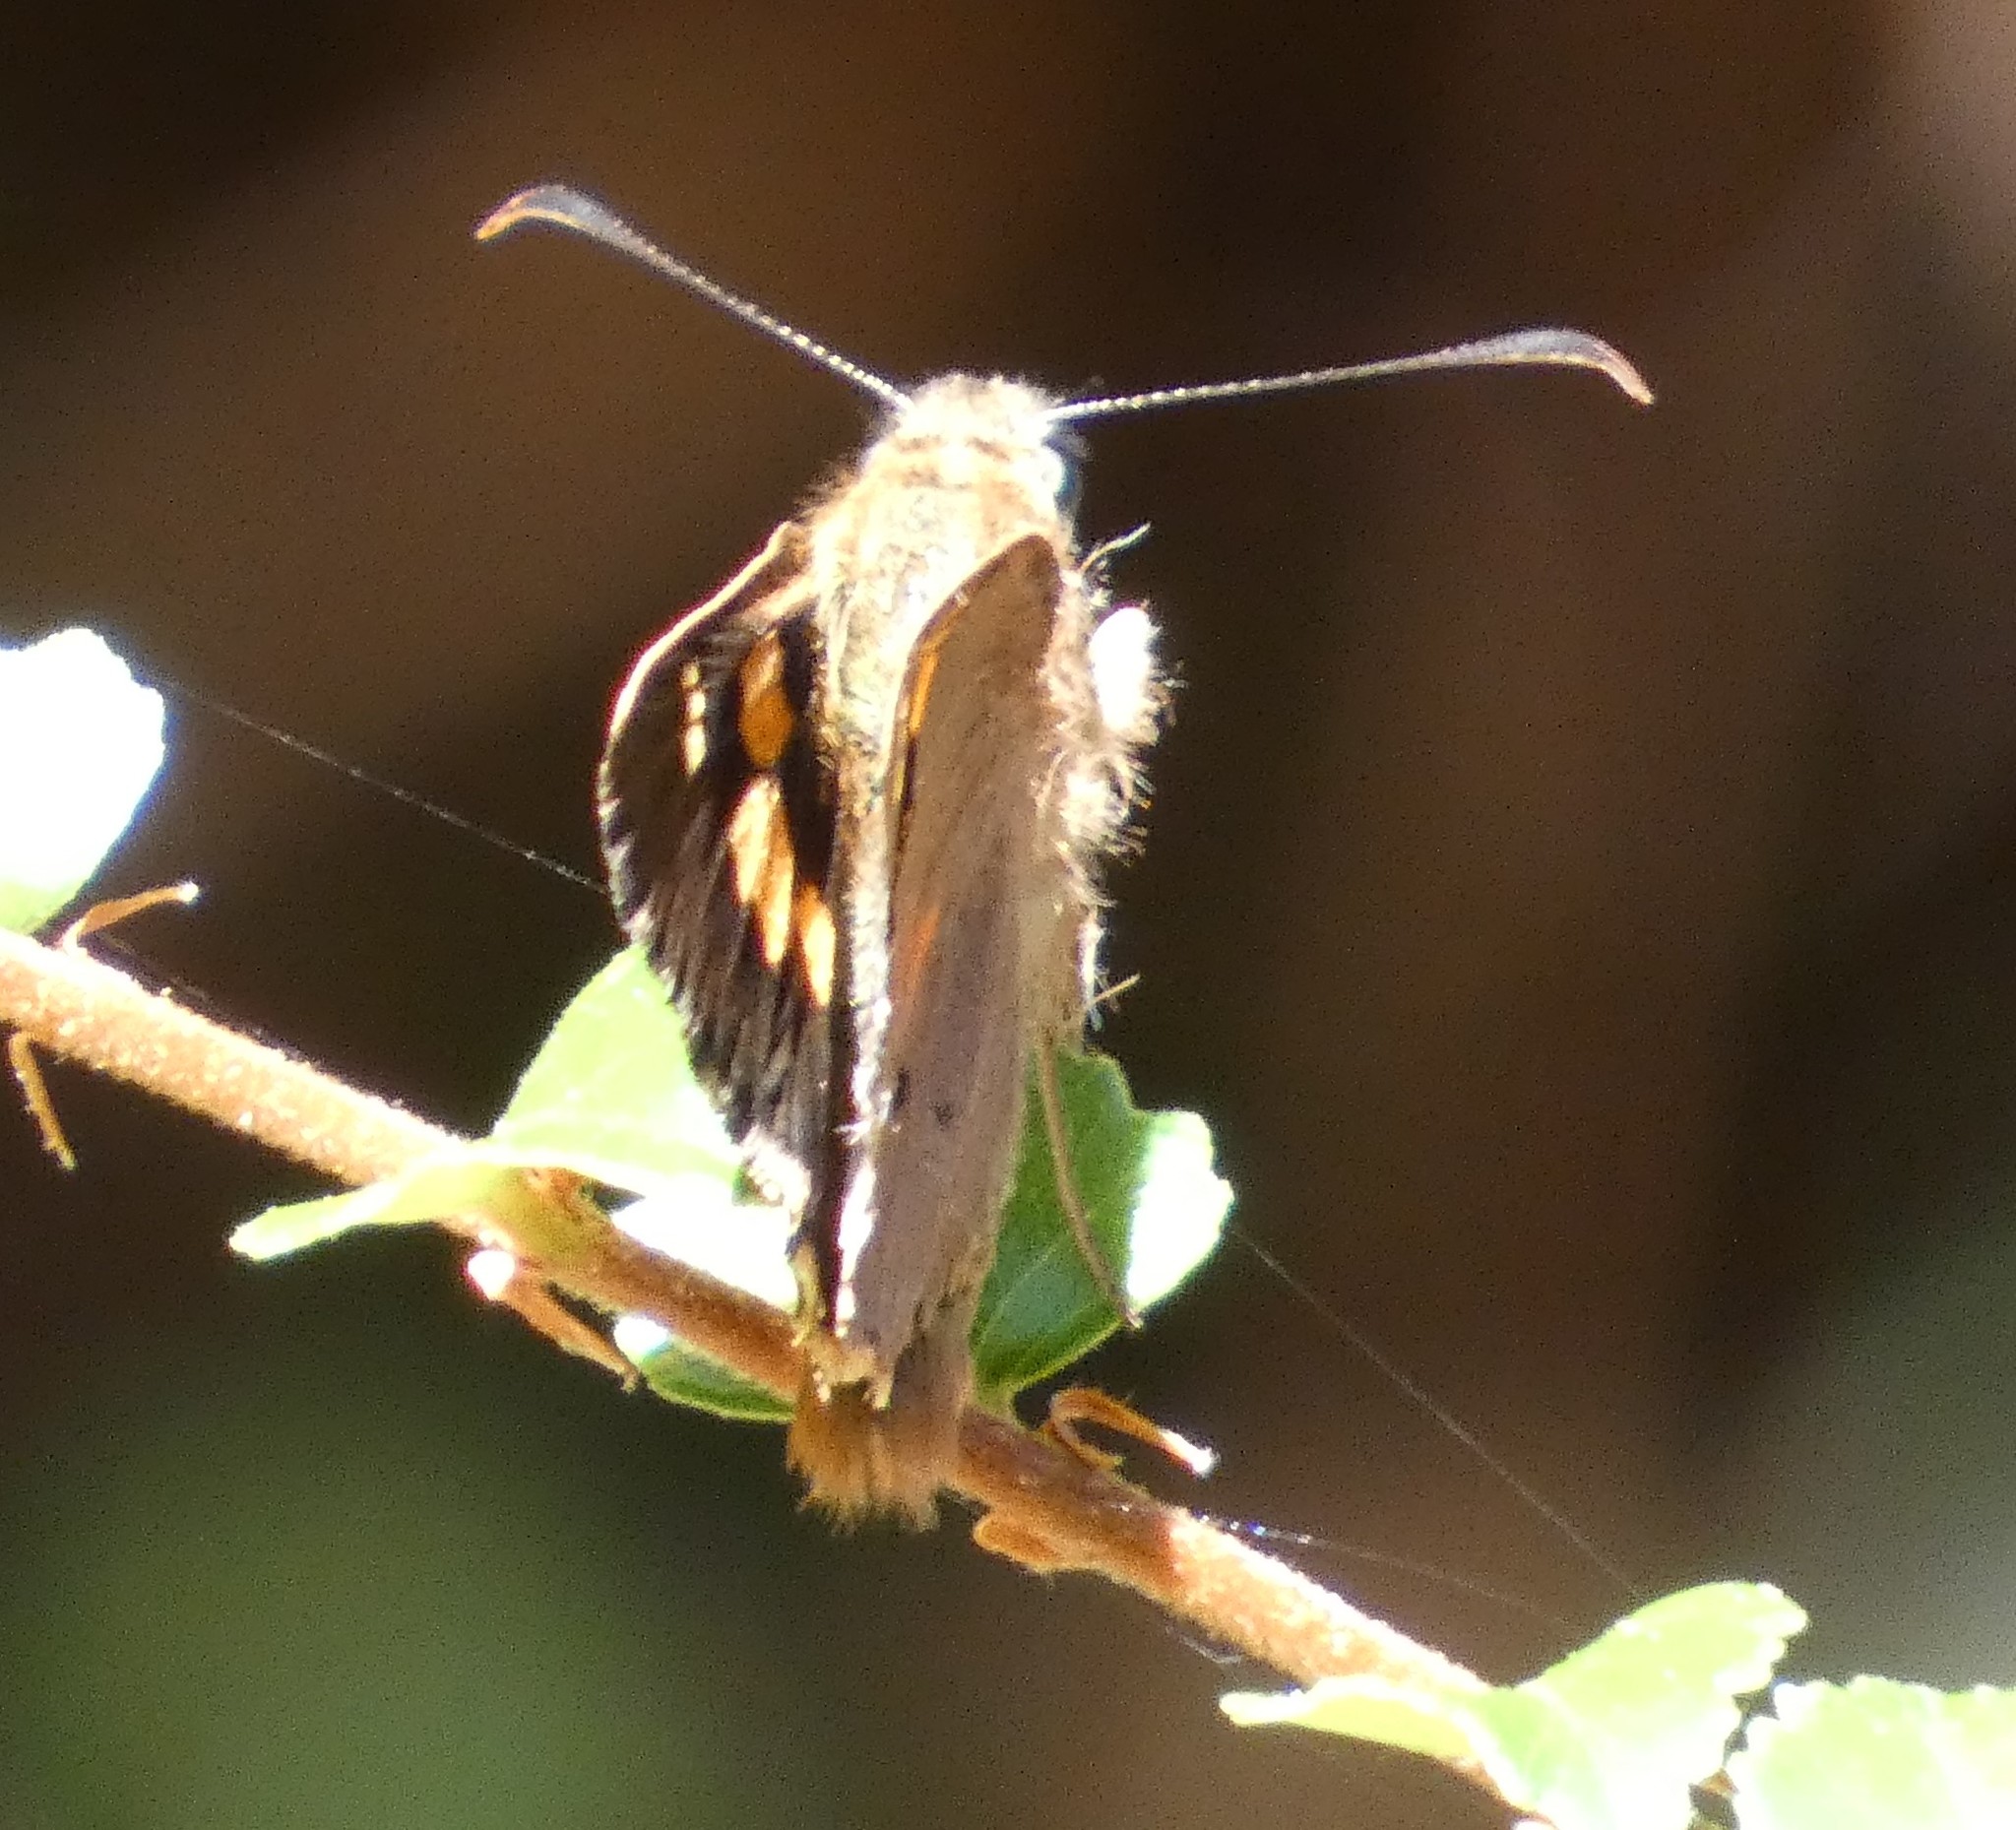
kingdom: Animalia
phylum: Arthropoda
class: Insecta
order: Lepidoptera
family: Hesperiidae
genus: Hesperilla
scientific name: Hesperilla idothea
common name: Flame sedge-skipper
